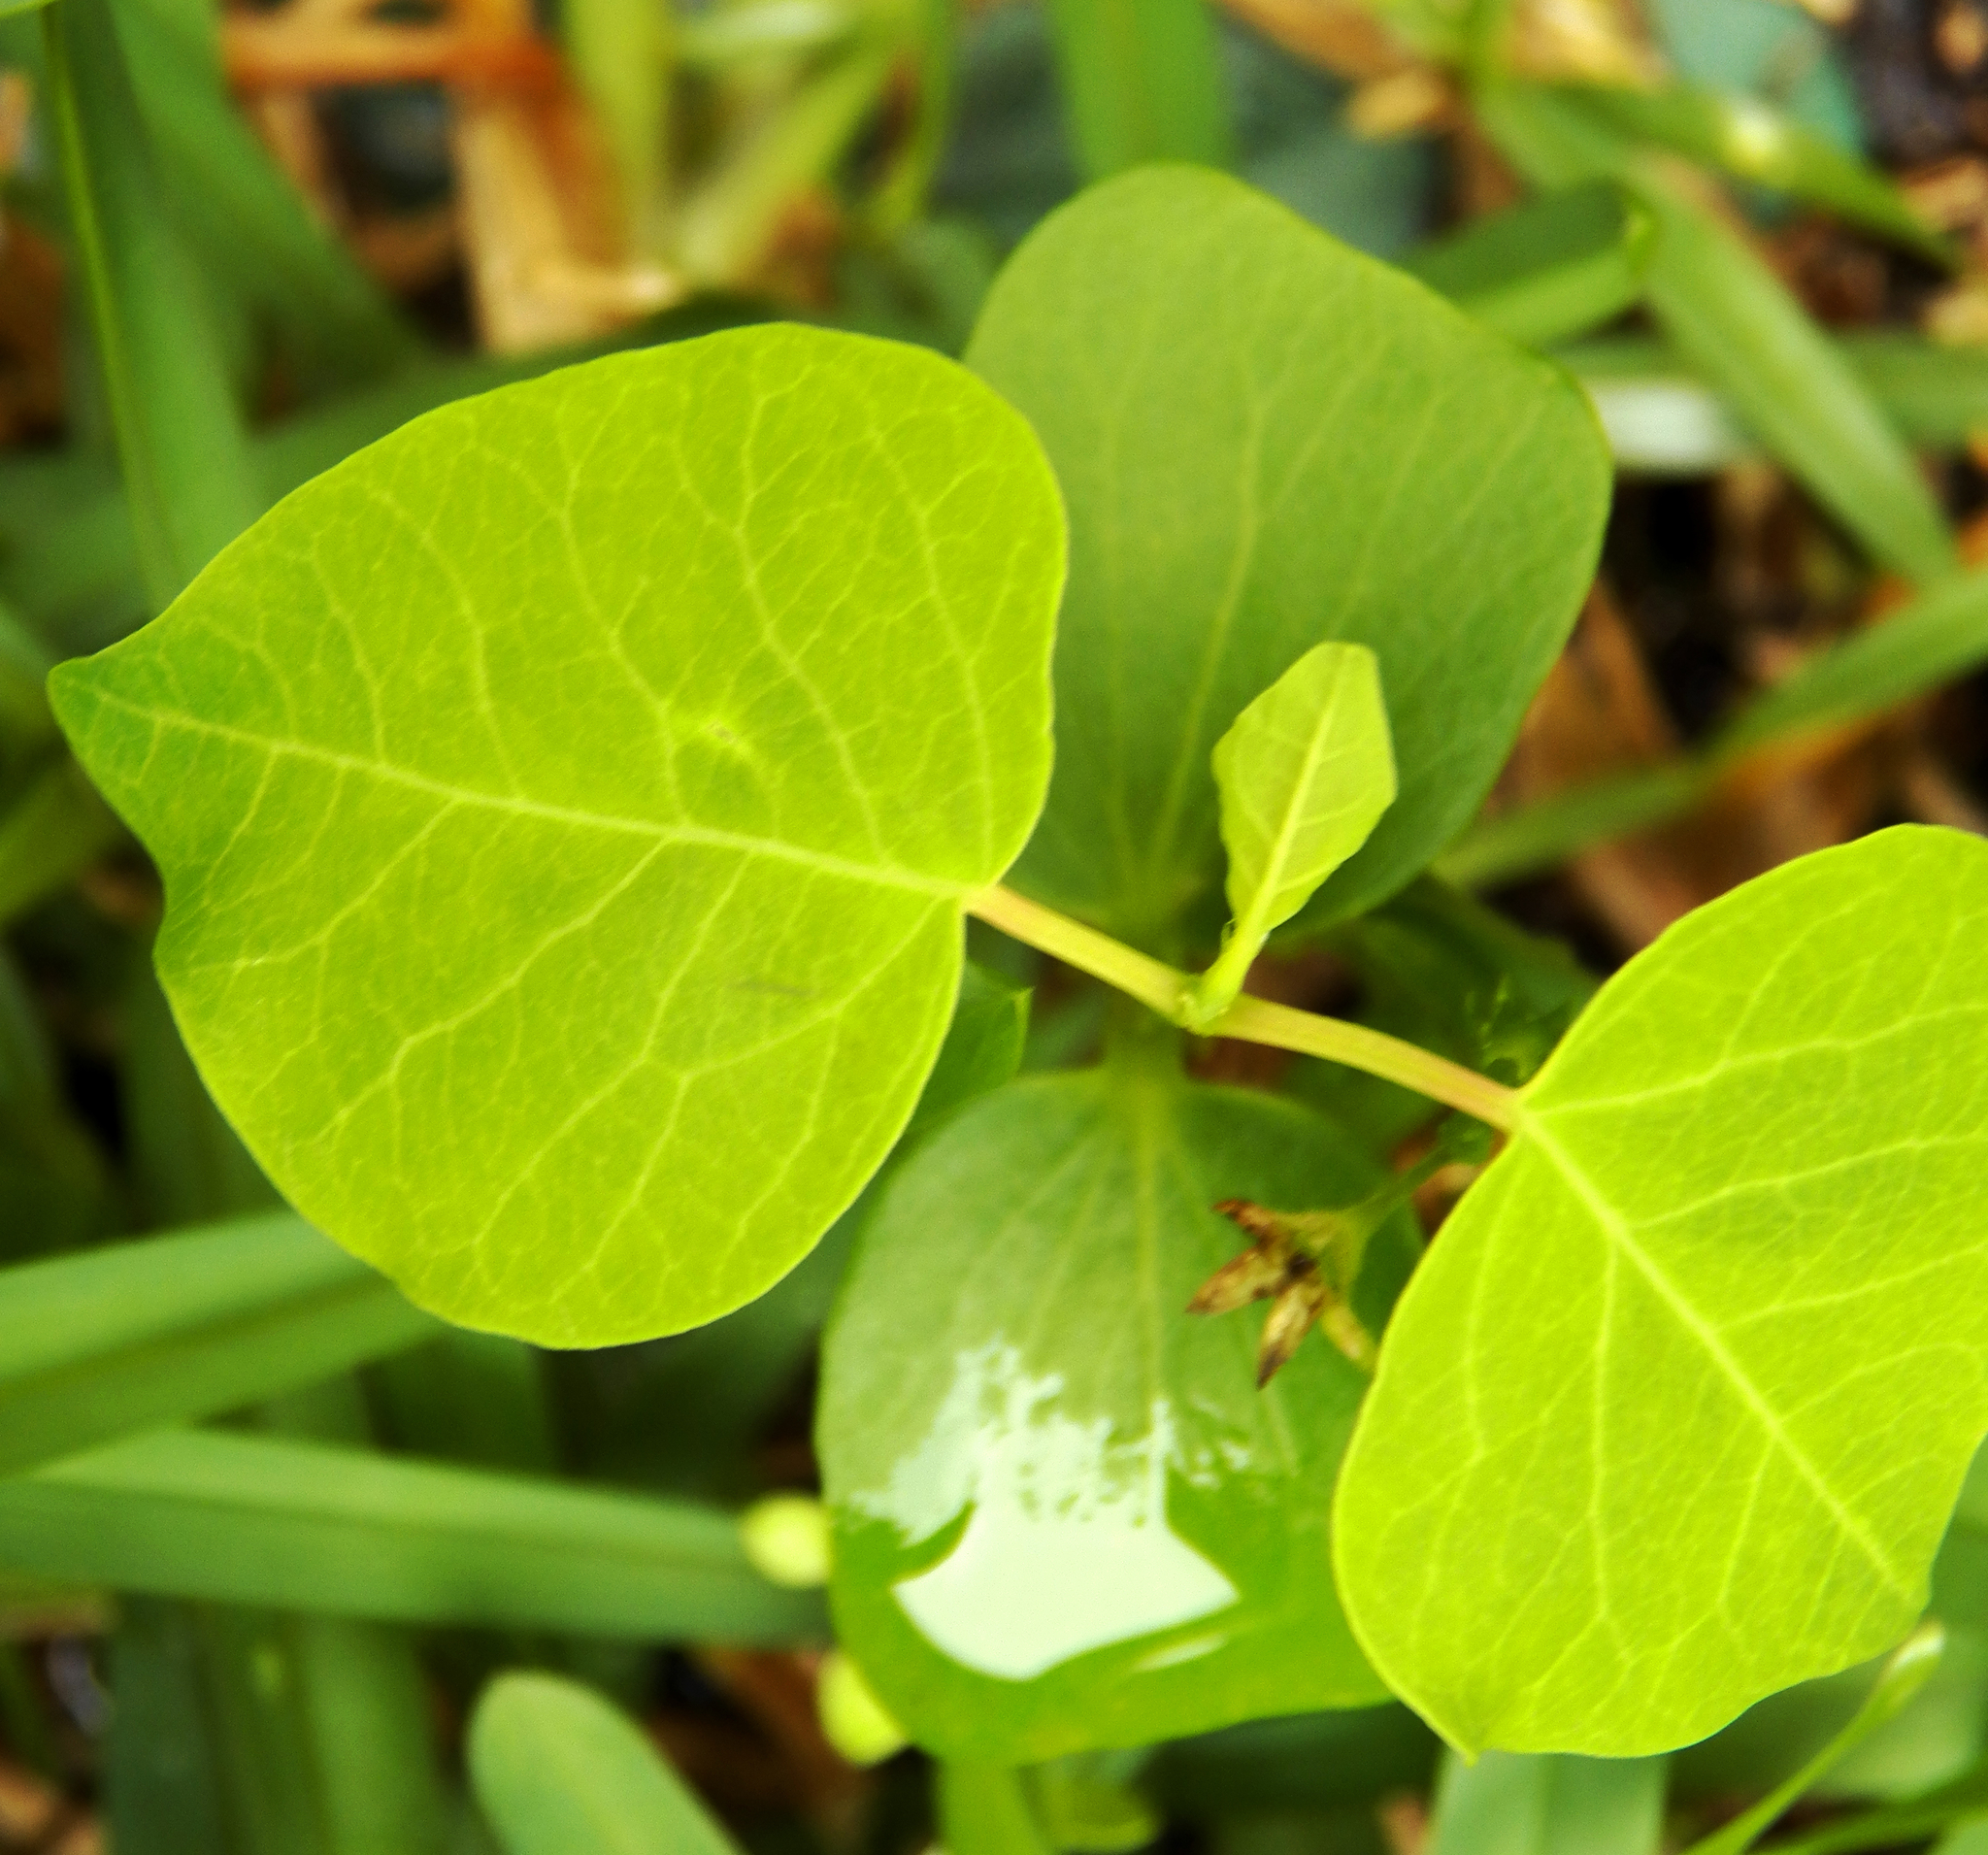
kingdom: Plantae
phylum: Tracheophyta
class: Magnoliopsida
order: Malpighiales
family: Euphorbiaceae
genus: Triadica
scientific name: Triadica sebifera
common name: Chinese tallow
